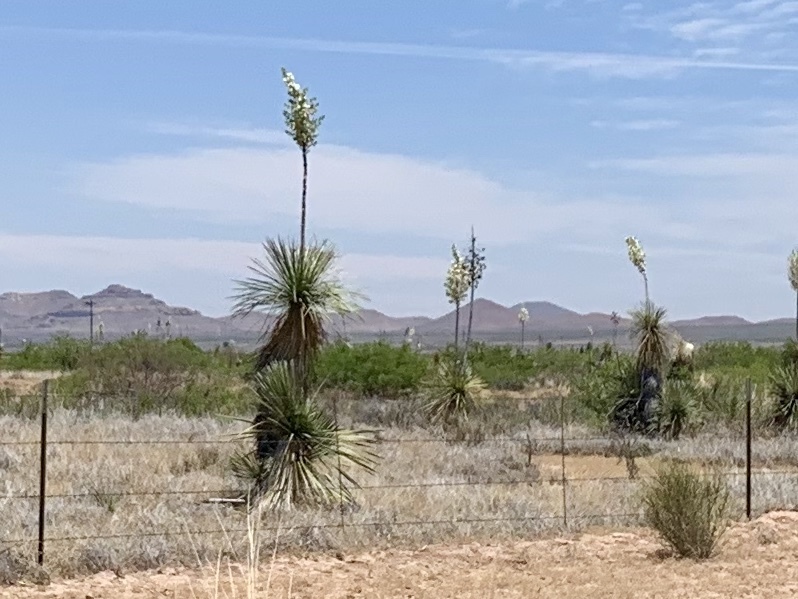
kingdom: Plantae
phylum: Tracheophyta
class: Liliopsida
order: Asparagales
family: Asparagaceae
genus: Yucca
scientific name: Yucca elata
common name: Palmella
